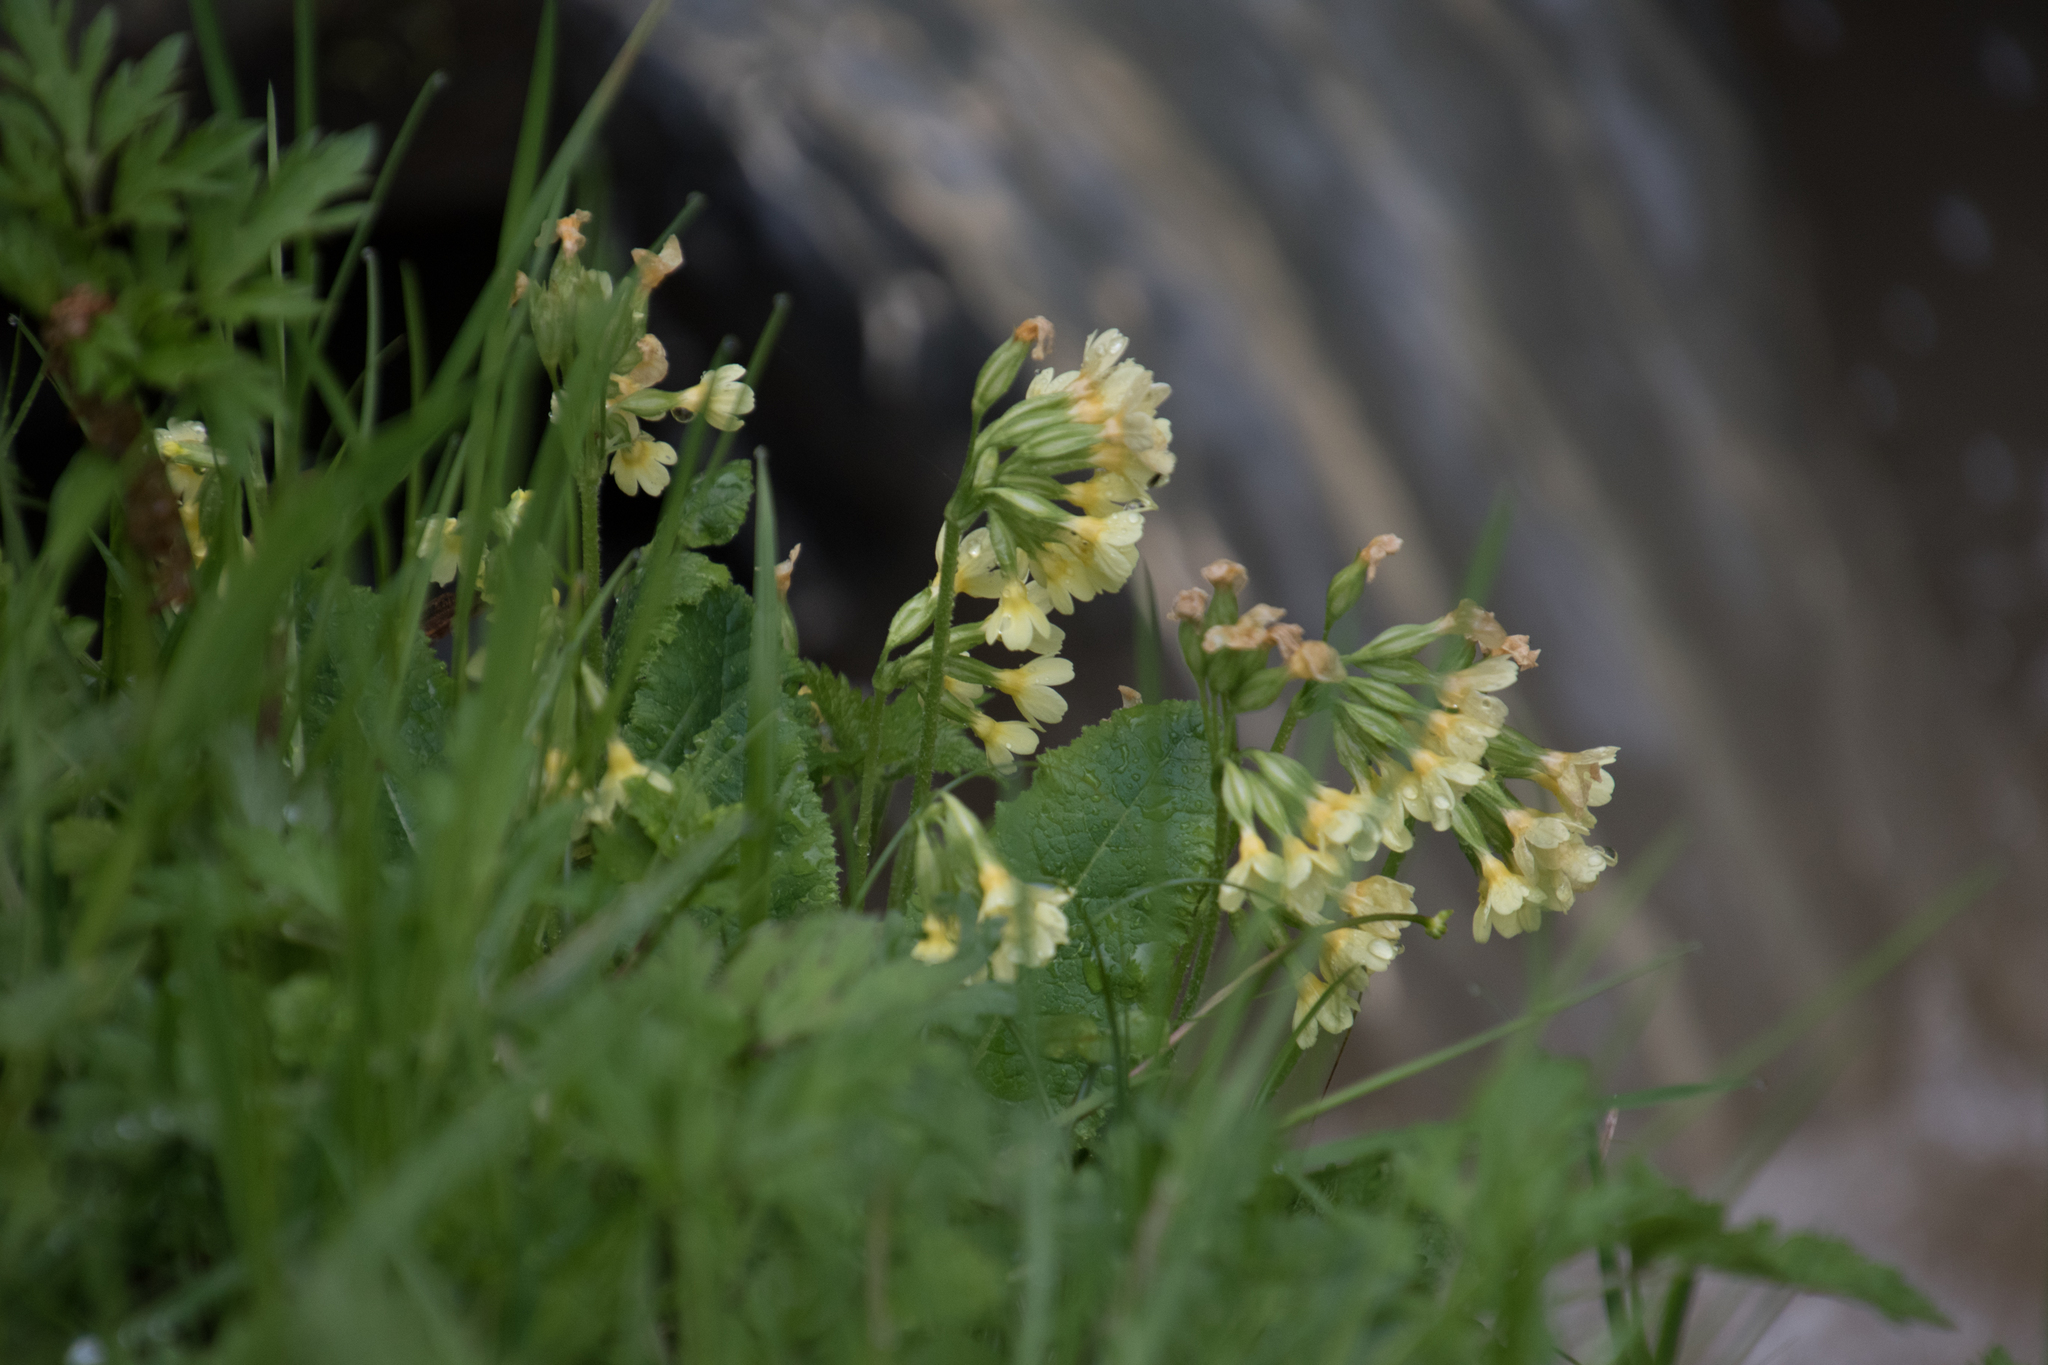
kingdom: Plantae
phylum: Tracheophyta
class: Magnoliopsida
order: Ericales
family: Primulaceae
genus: Primula
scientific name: Primula elatior
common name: Oxlip
